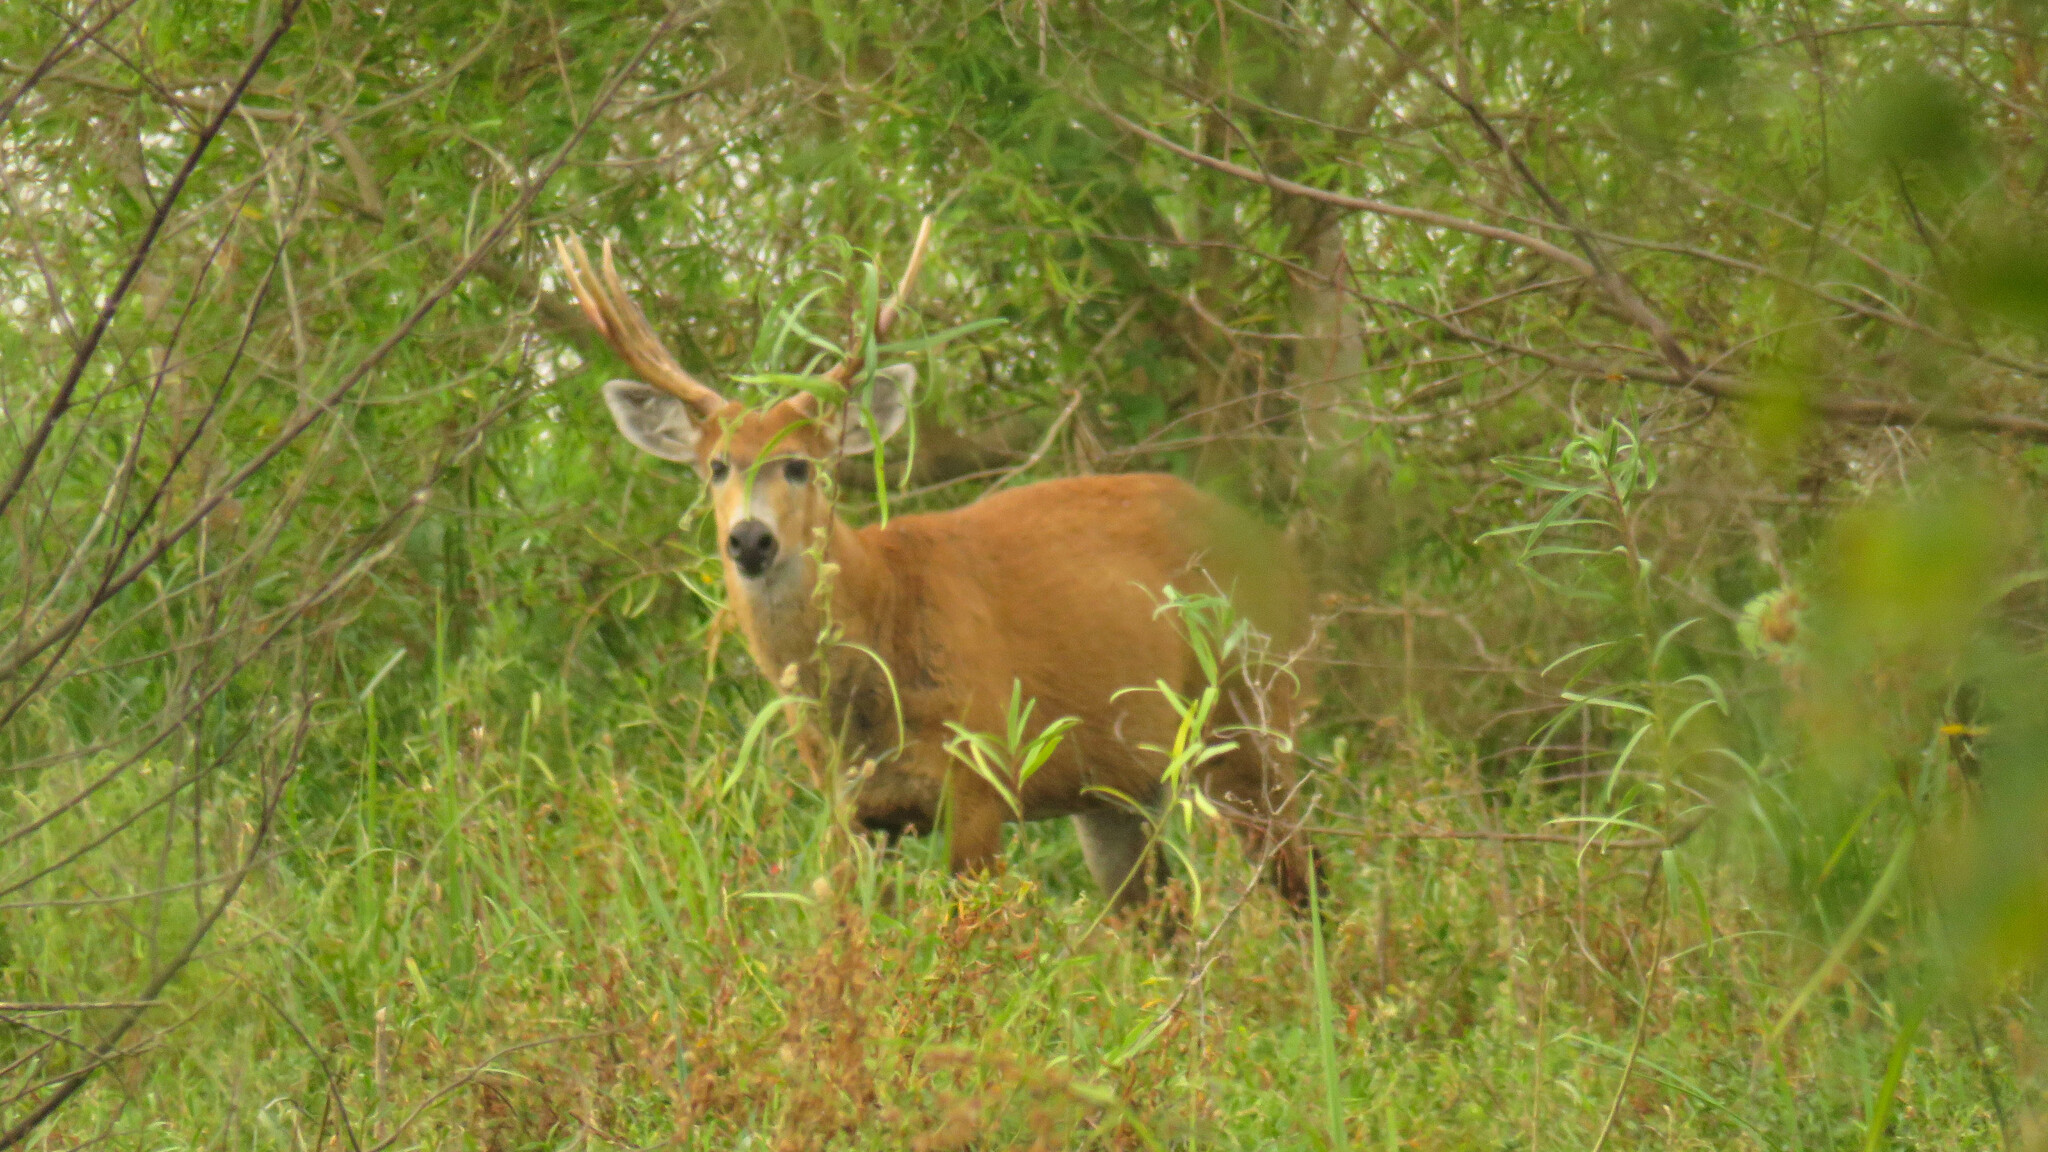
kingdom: Animalia
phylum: Chordata
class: Mammalia
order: Artiodactyla
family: Cervidae
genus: Blastocerus
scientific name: Blastocerus dichotomus
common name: Marsh deer
